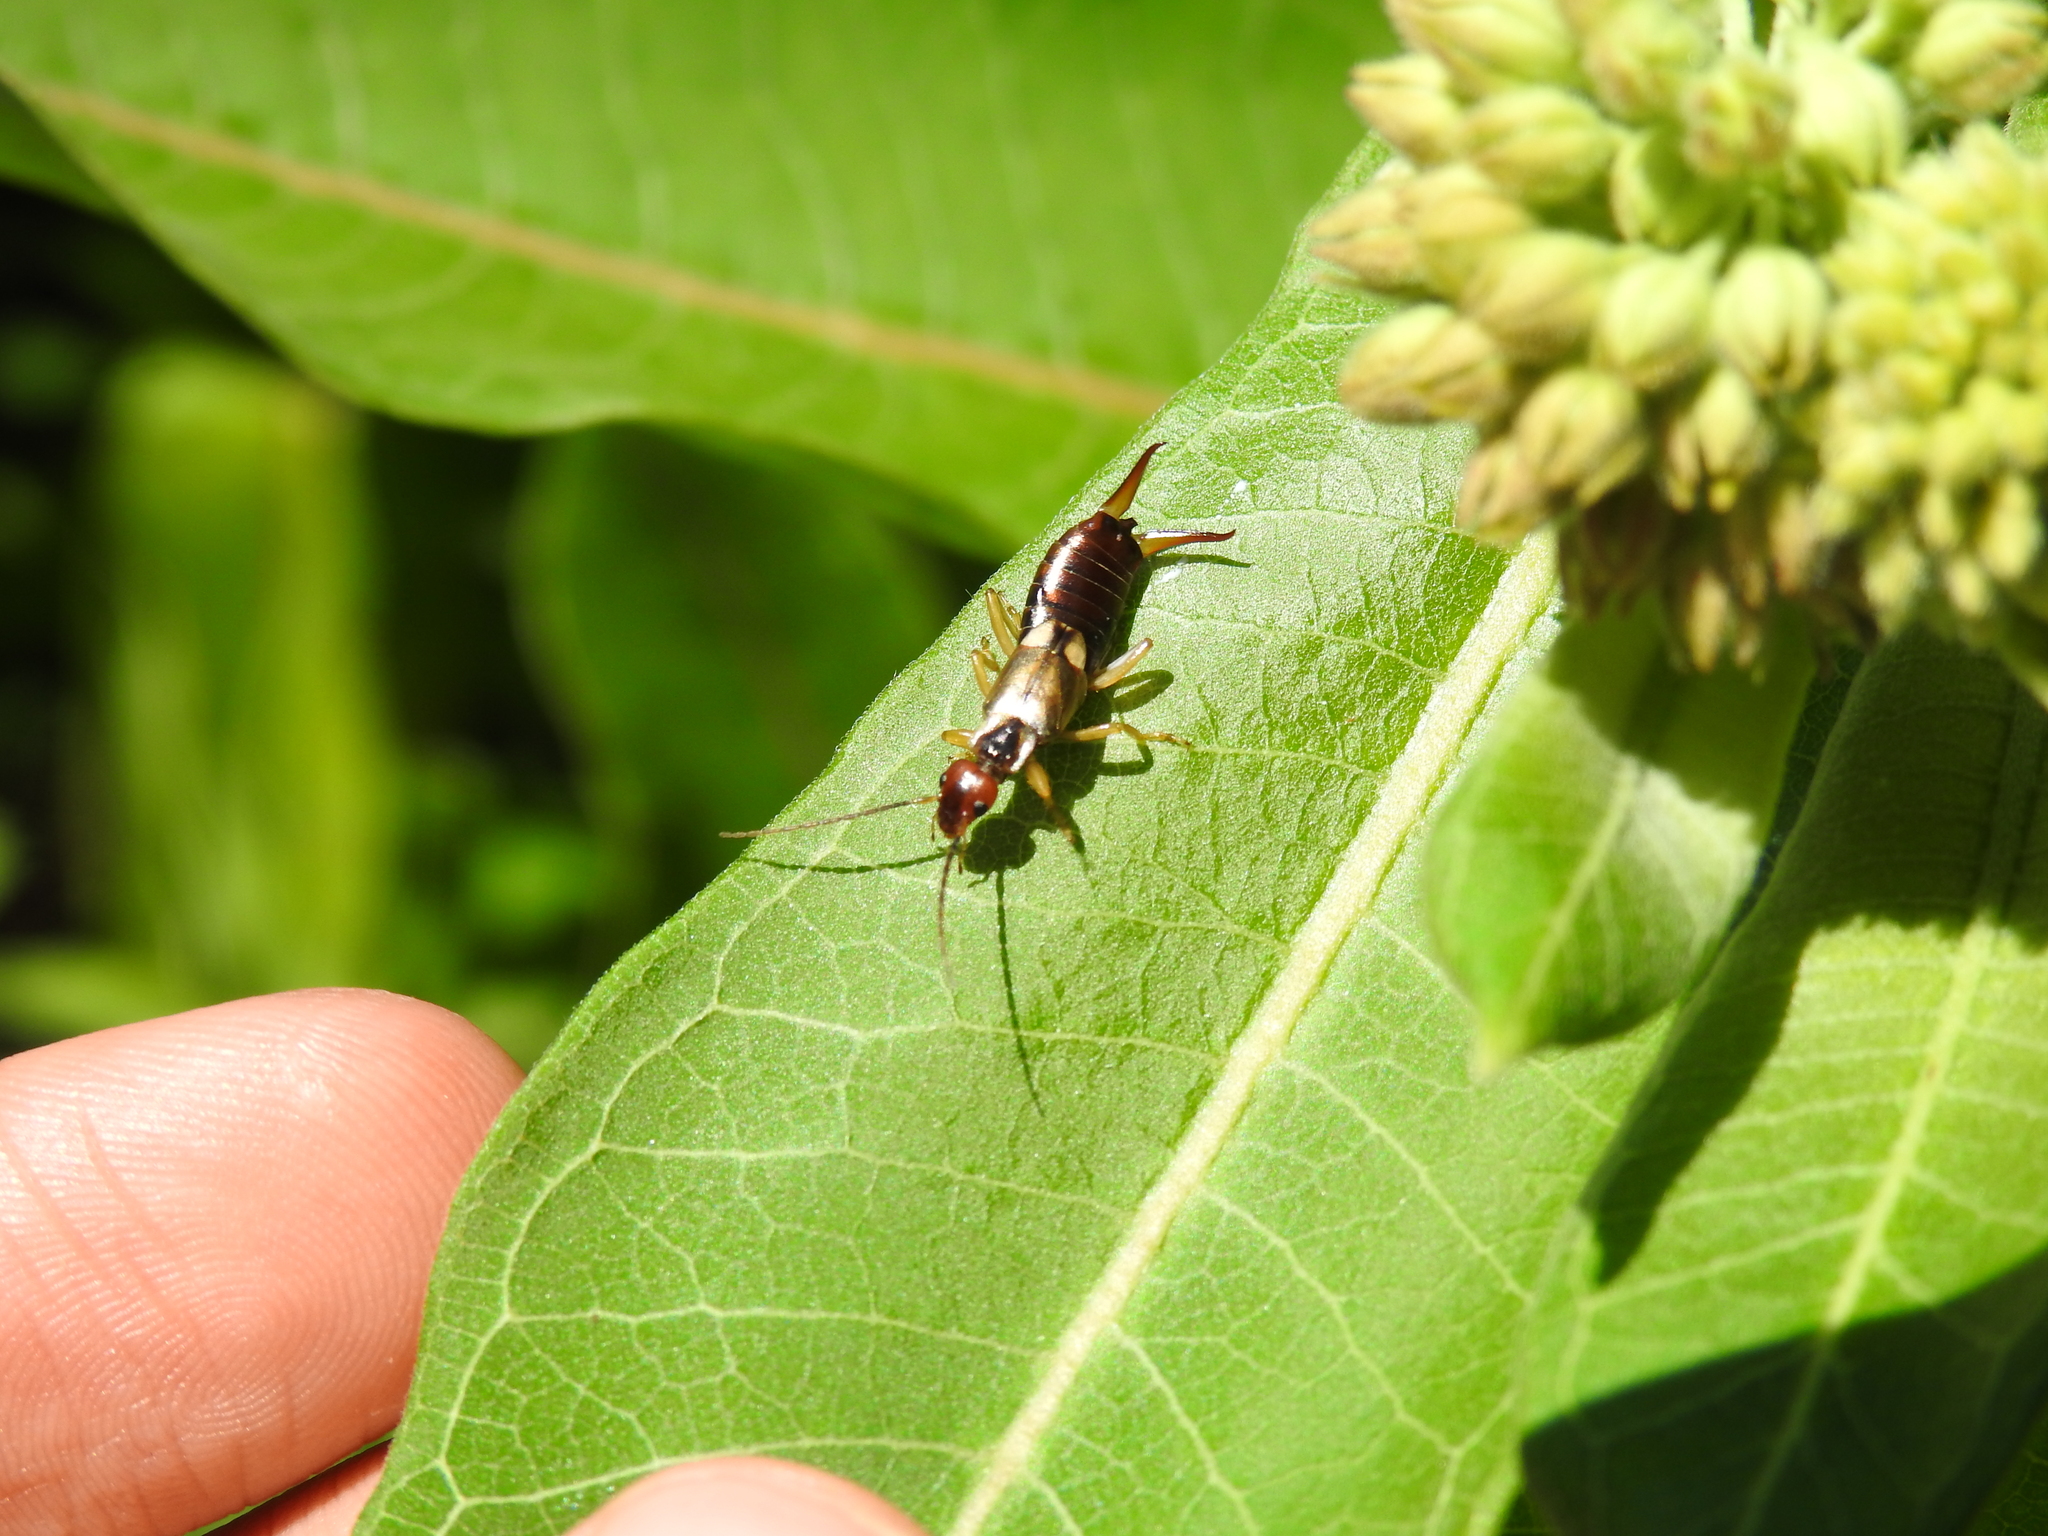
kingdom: Animalia
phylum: Arthropoda
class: Insecta
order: Dermaptera
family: Forficulidae
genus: Forficula
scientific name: Forficula
